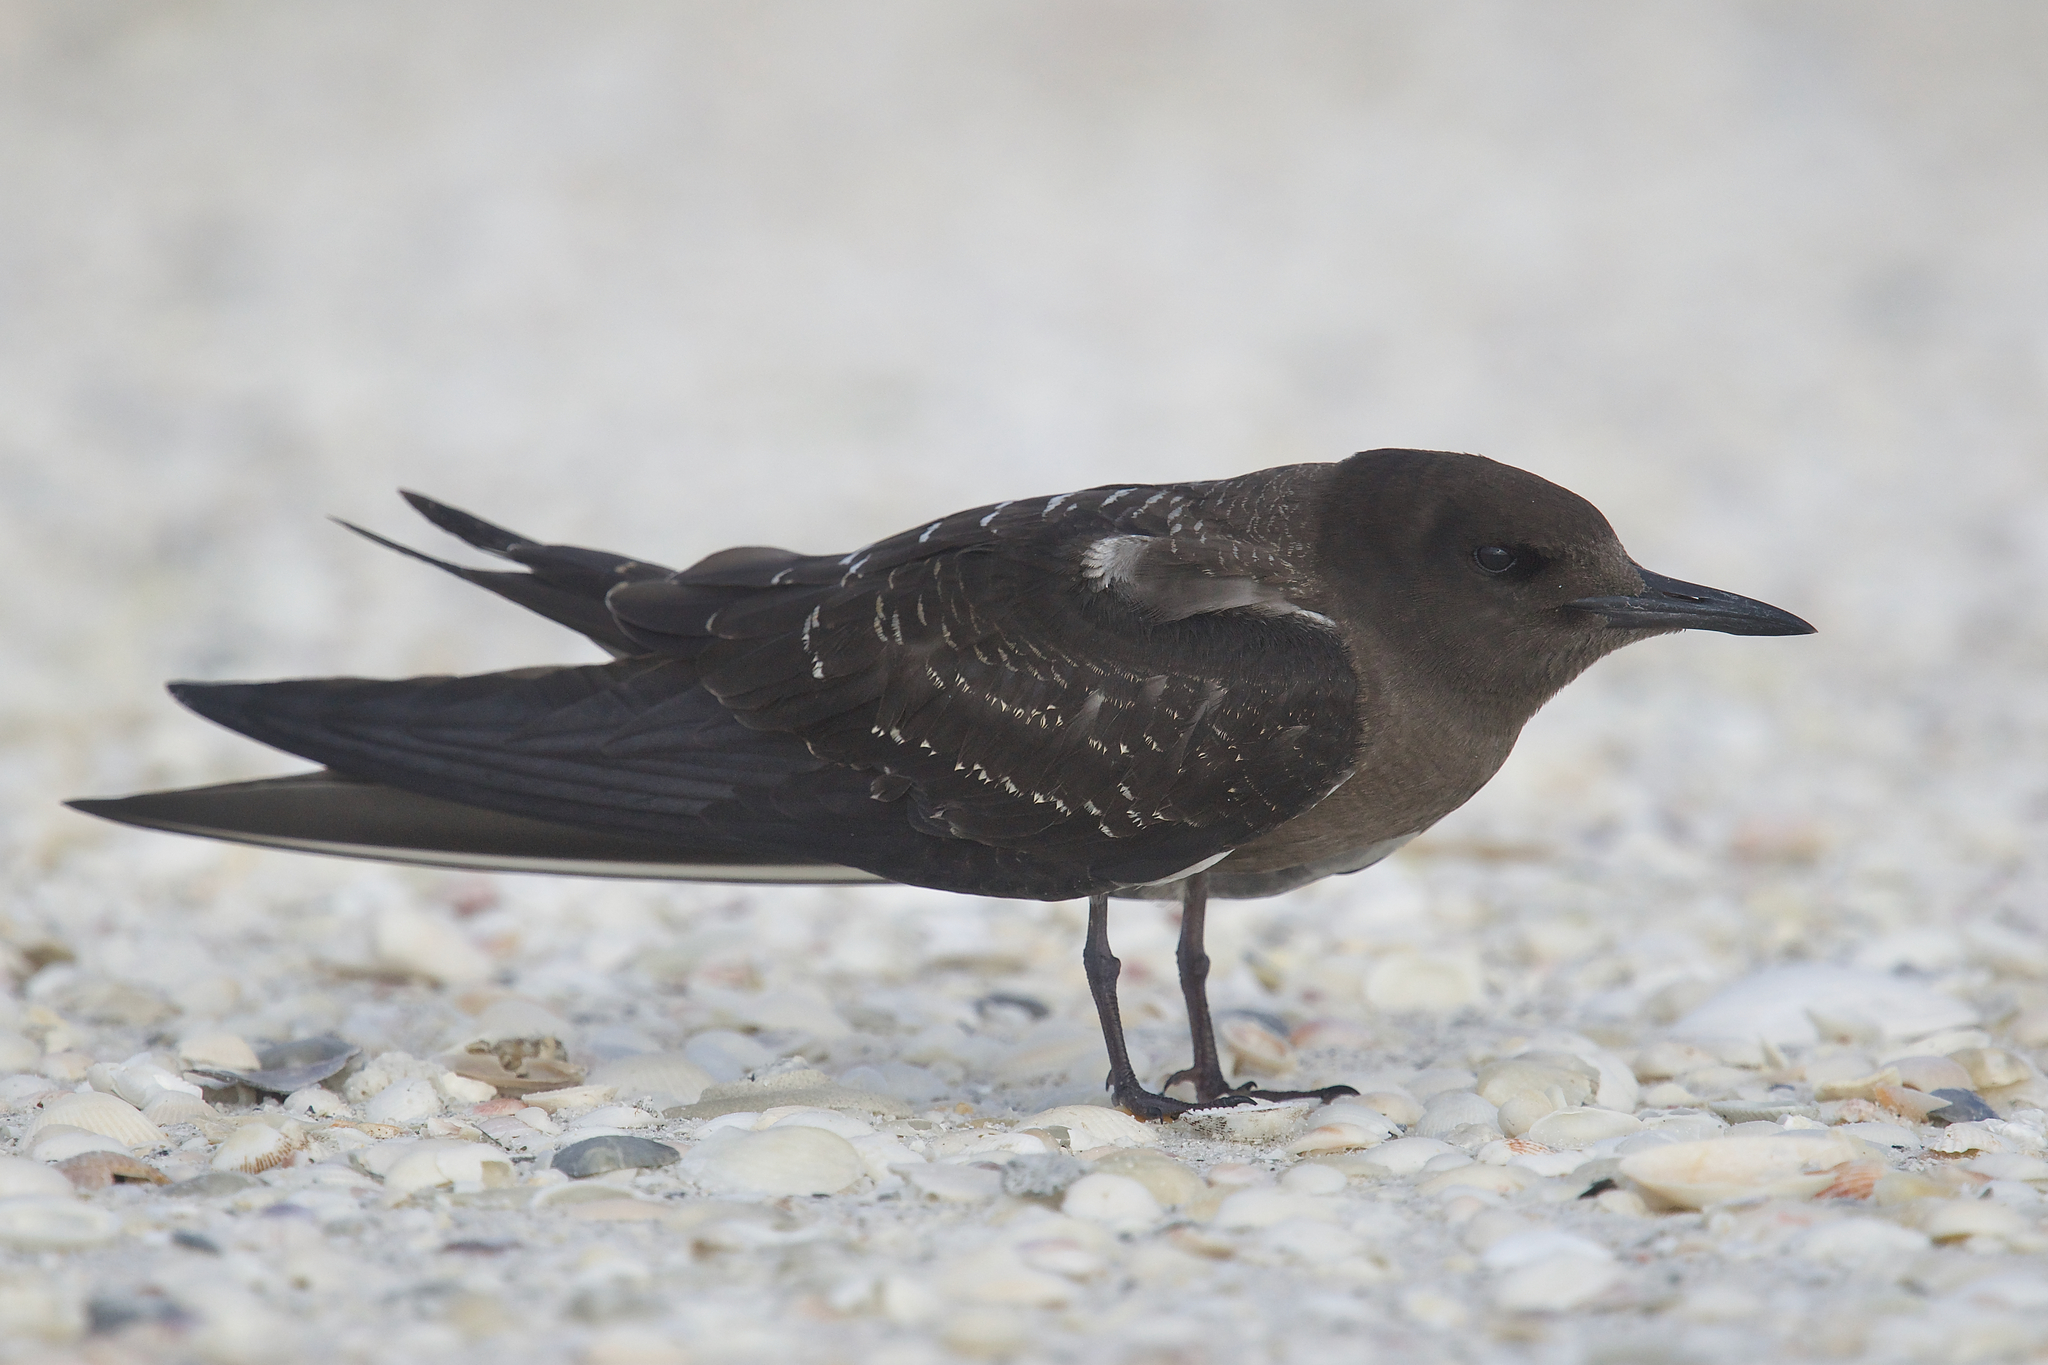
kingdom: Animalia
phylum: Chordata
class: Aves
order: Charadriiformes
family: Laridae
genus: Onychoprion
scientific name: Onychoprion fuscatus
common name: Sooty tern
